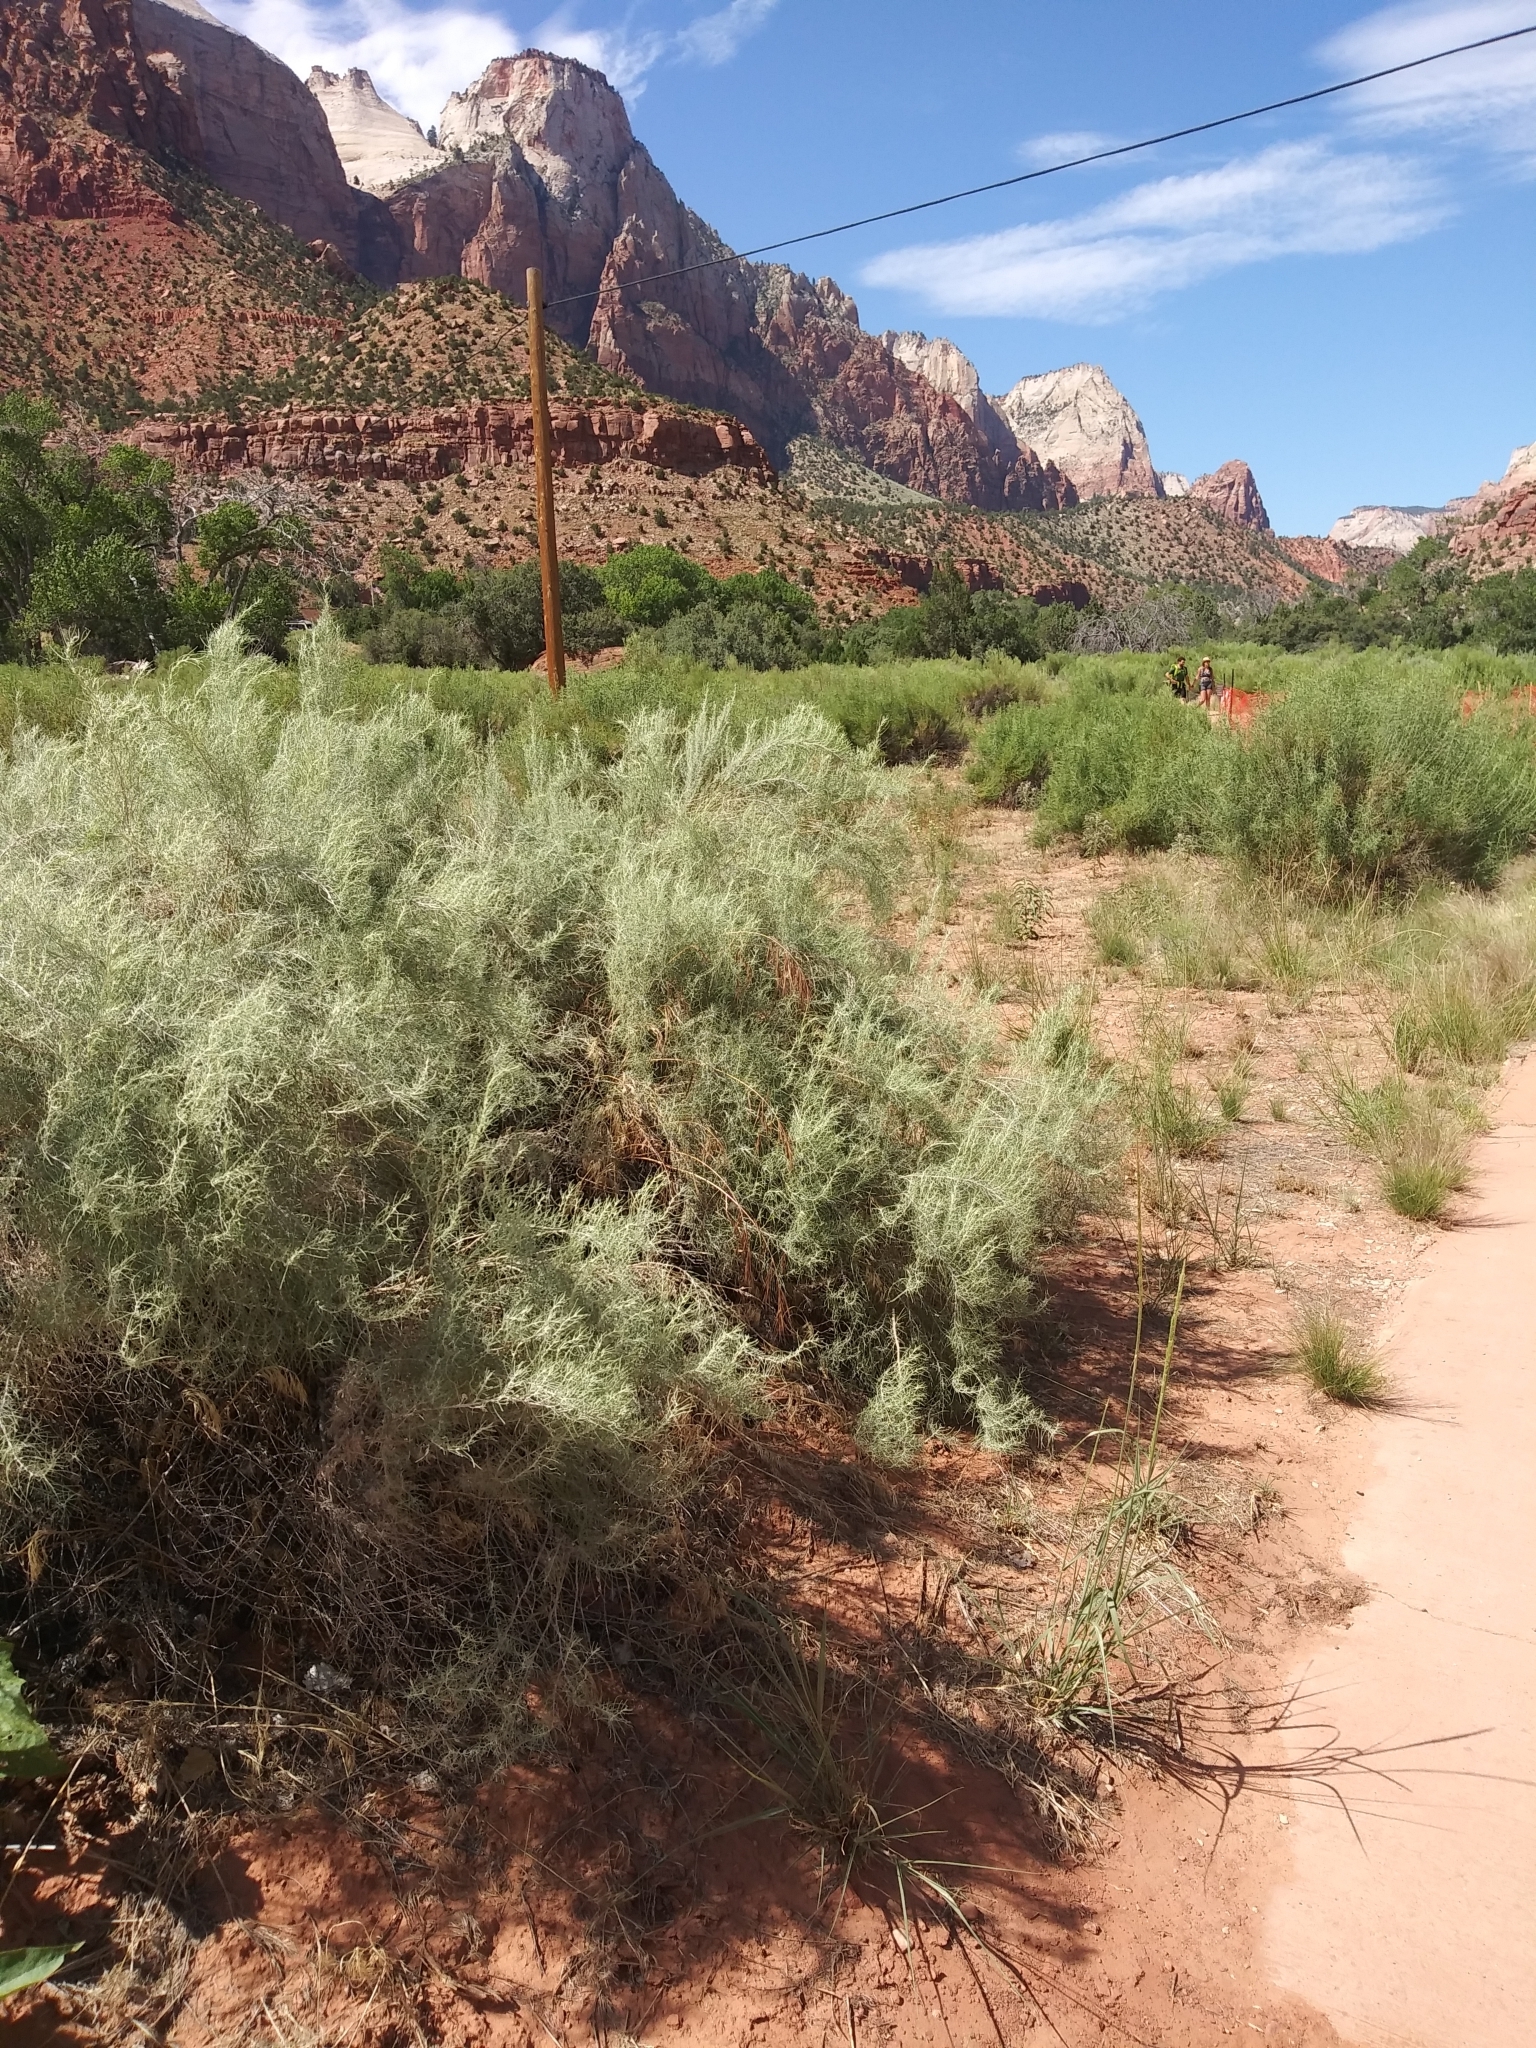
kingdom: Plantae
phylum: Tracheophyta
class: Magnoliopsida
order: Asterales
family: Asteraceae
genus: Artemisia
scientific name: Artemisia filifolia
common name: Sand-sage
